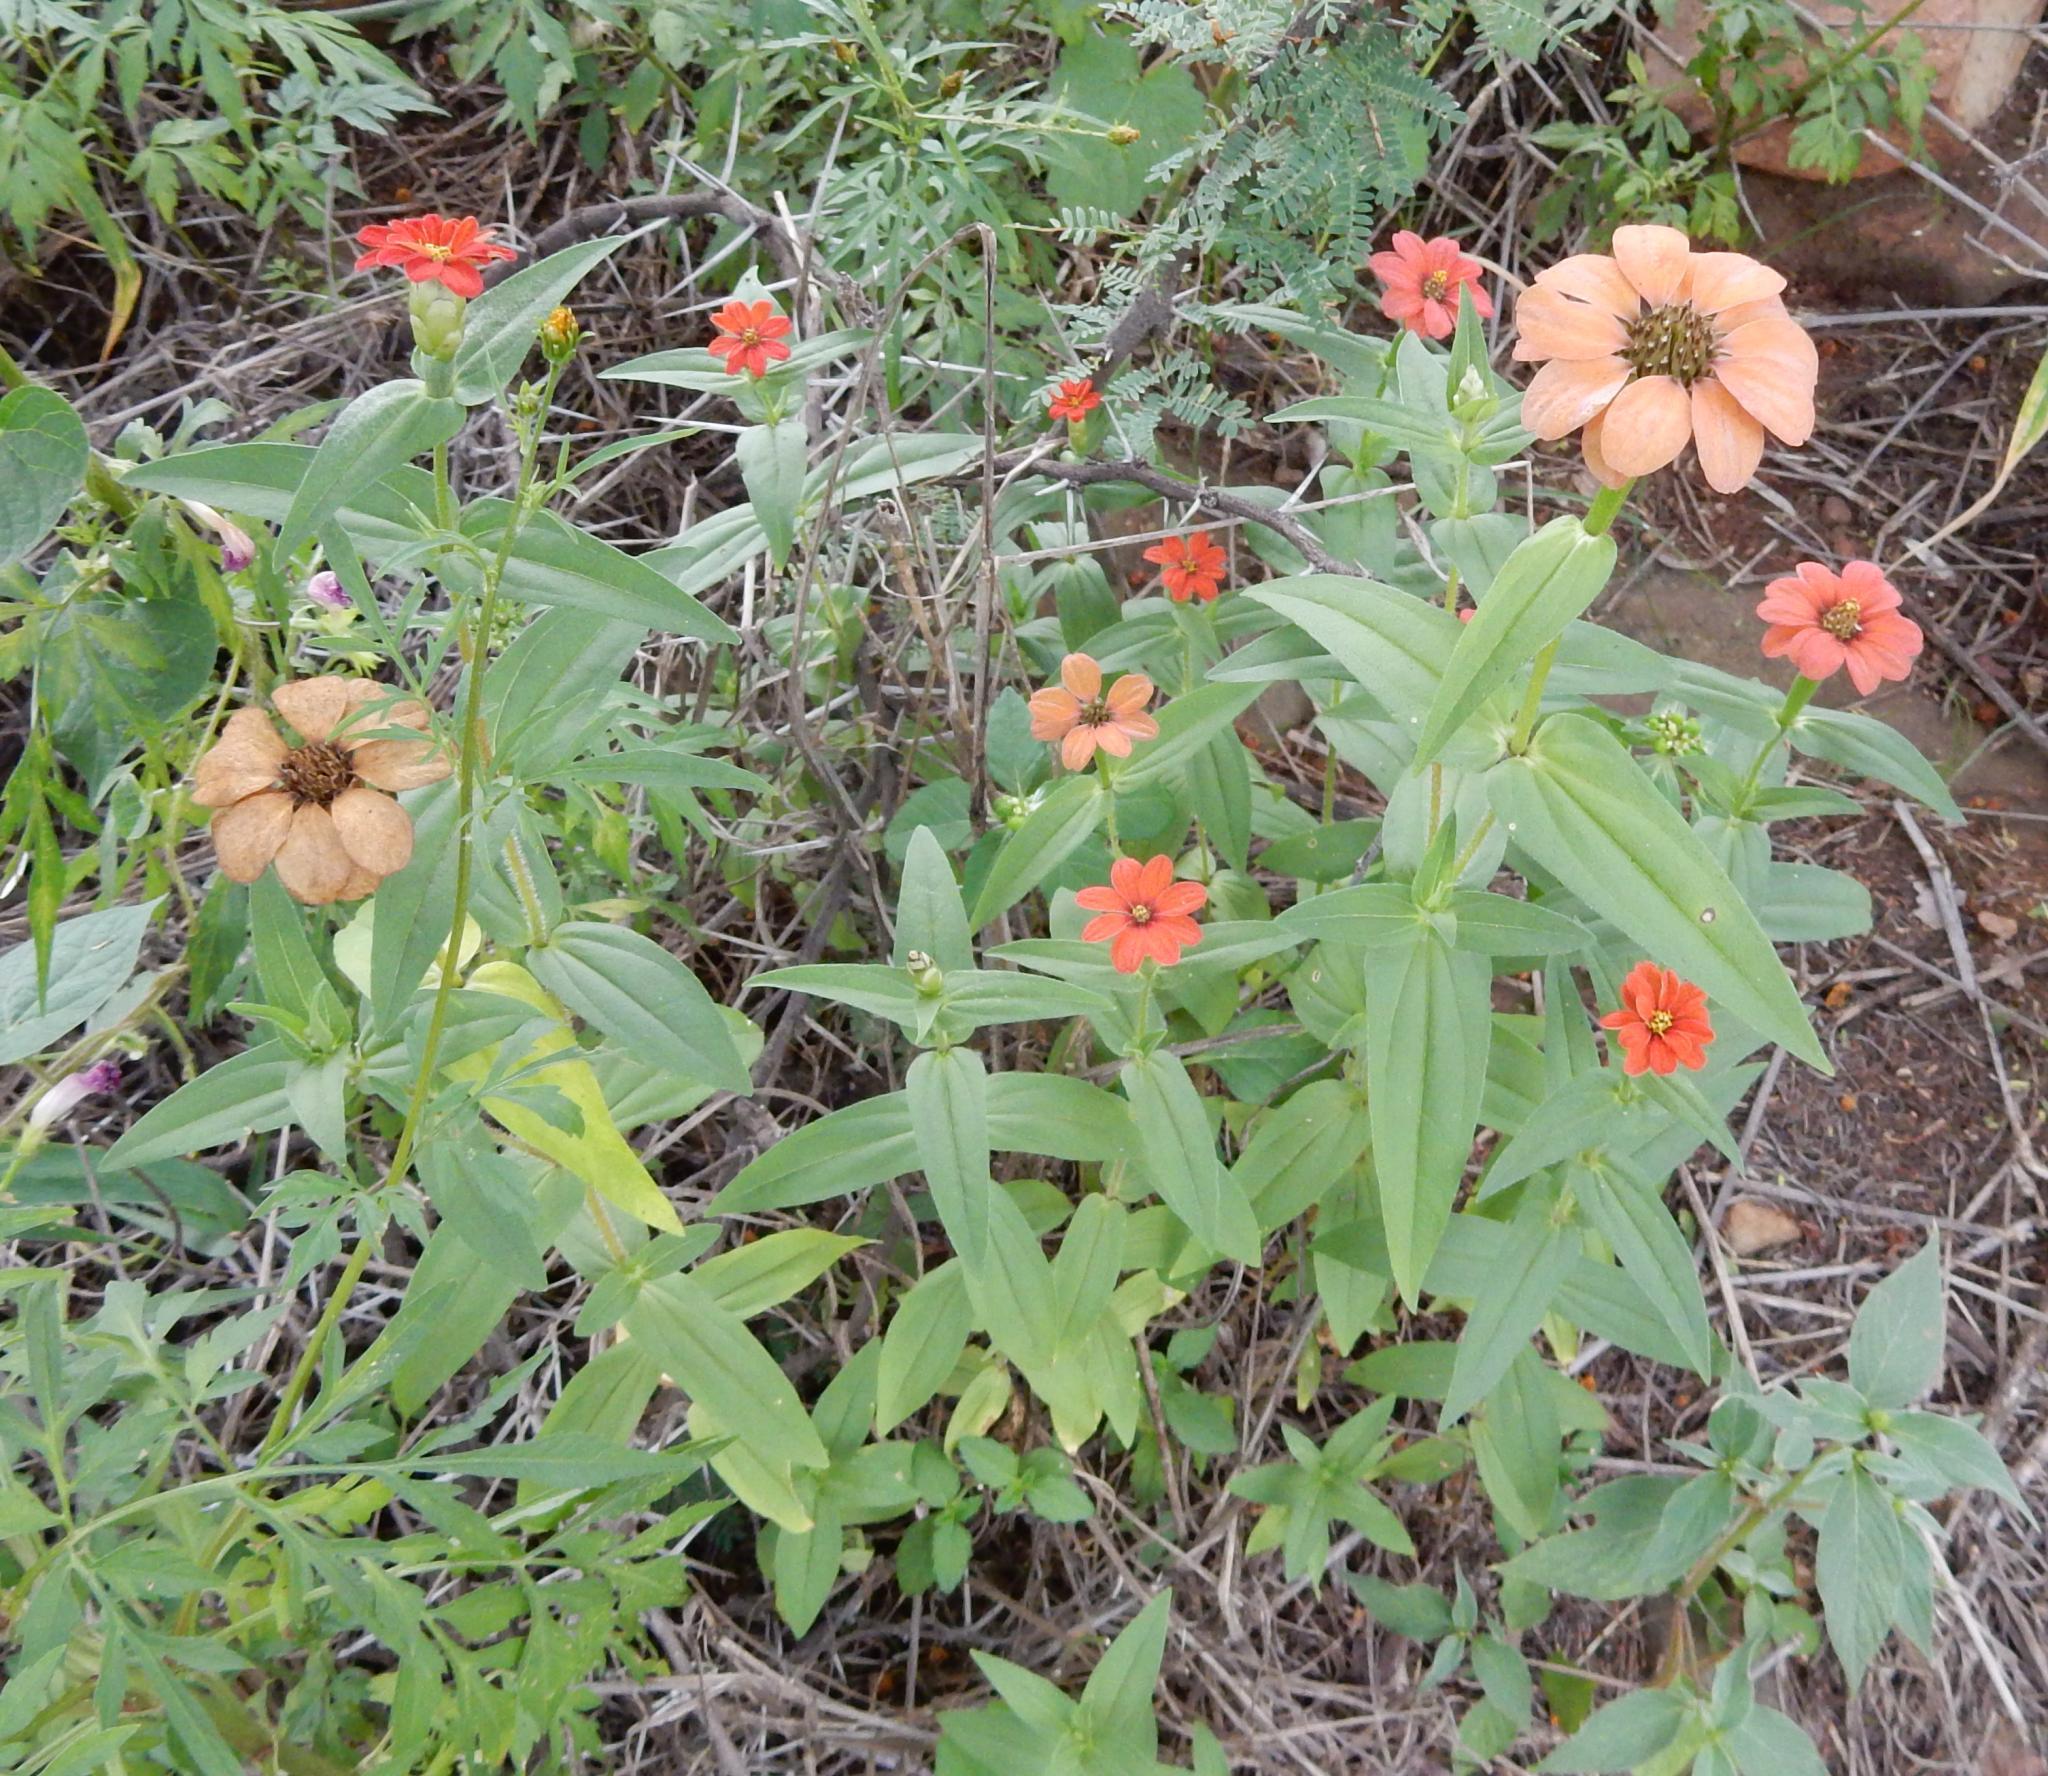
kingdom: Plantae
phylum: Tracheophyta
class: Magnoliopsida
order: Asterales
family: Asteraceae
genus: Zinnia
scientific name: Zinnia peruviana
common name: Peruvian zinnia
